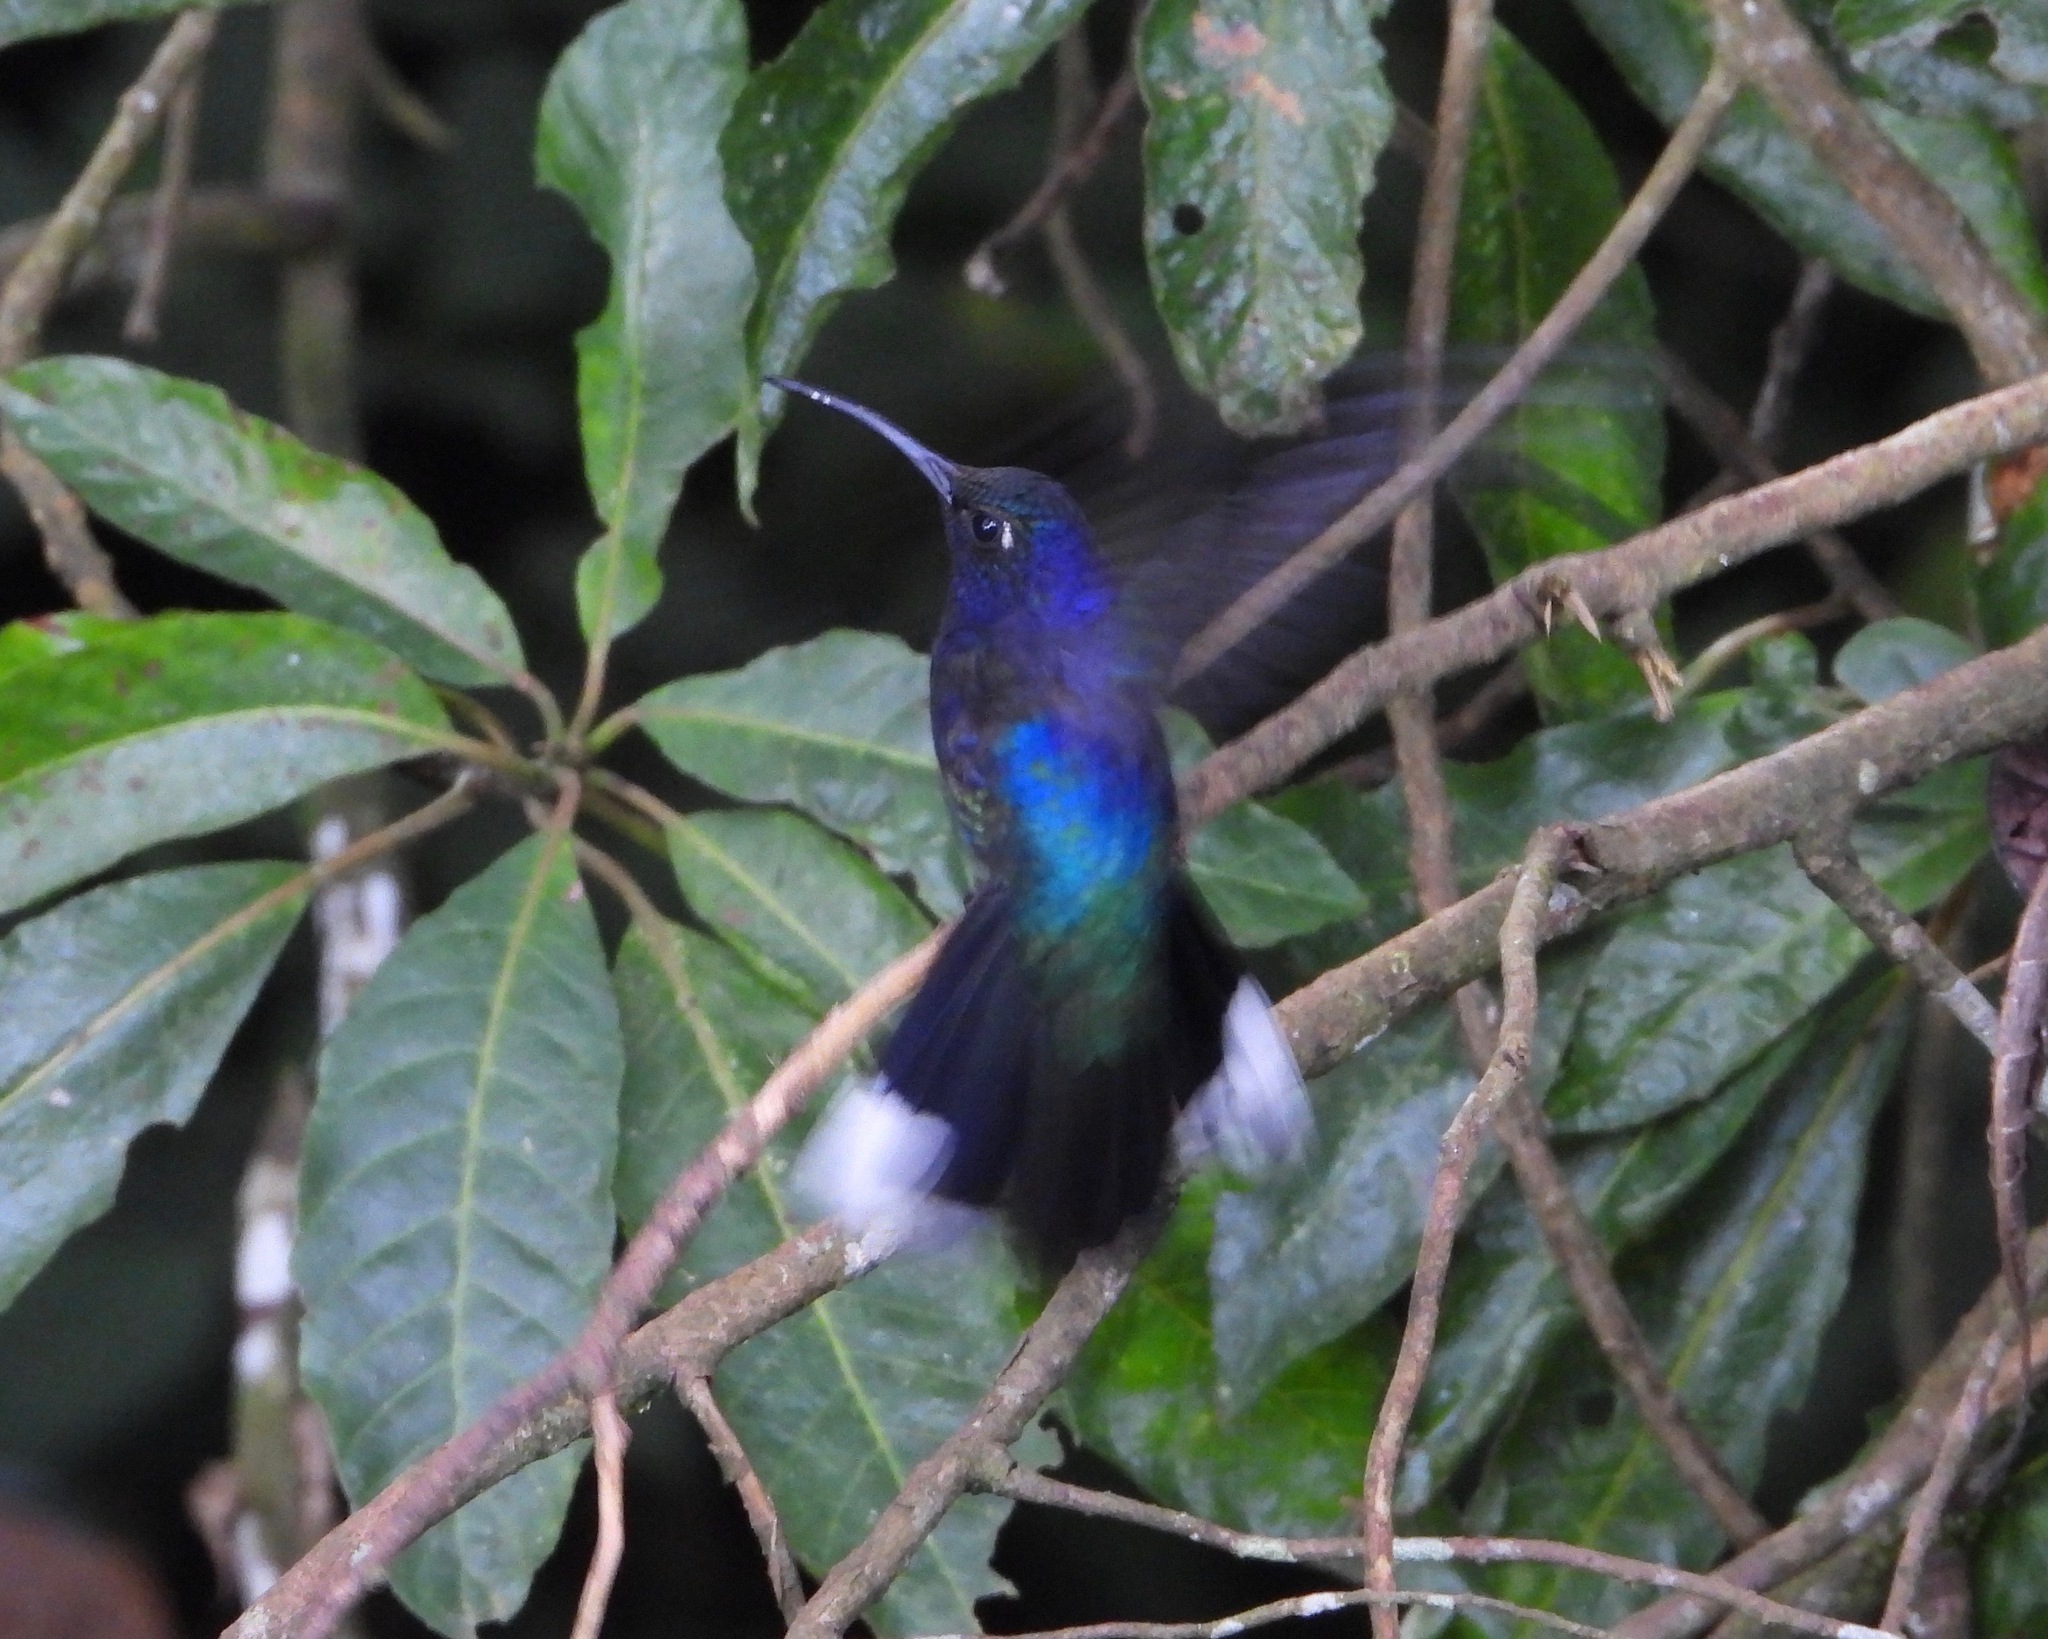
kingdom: Animalia
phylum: Chordata
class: Aves
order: Apodiformes
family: Trochilidae
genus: Campylopterus
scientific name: Campylopterus hemileucurus
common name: Violet sabrewing
